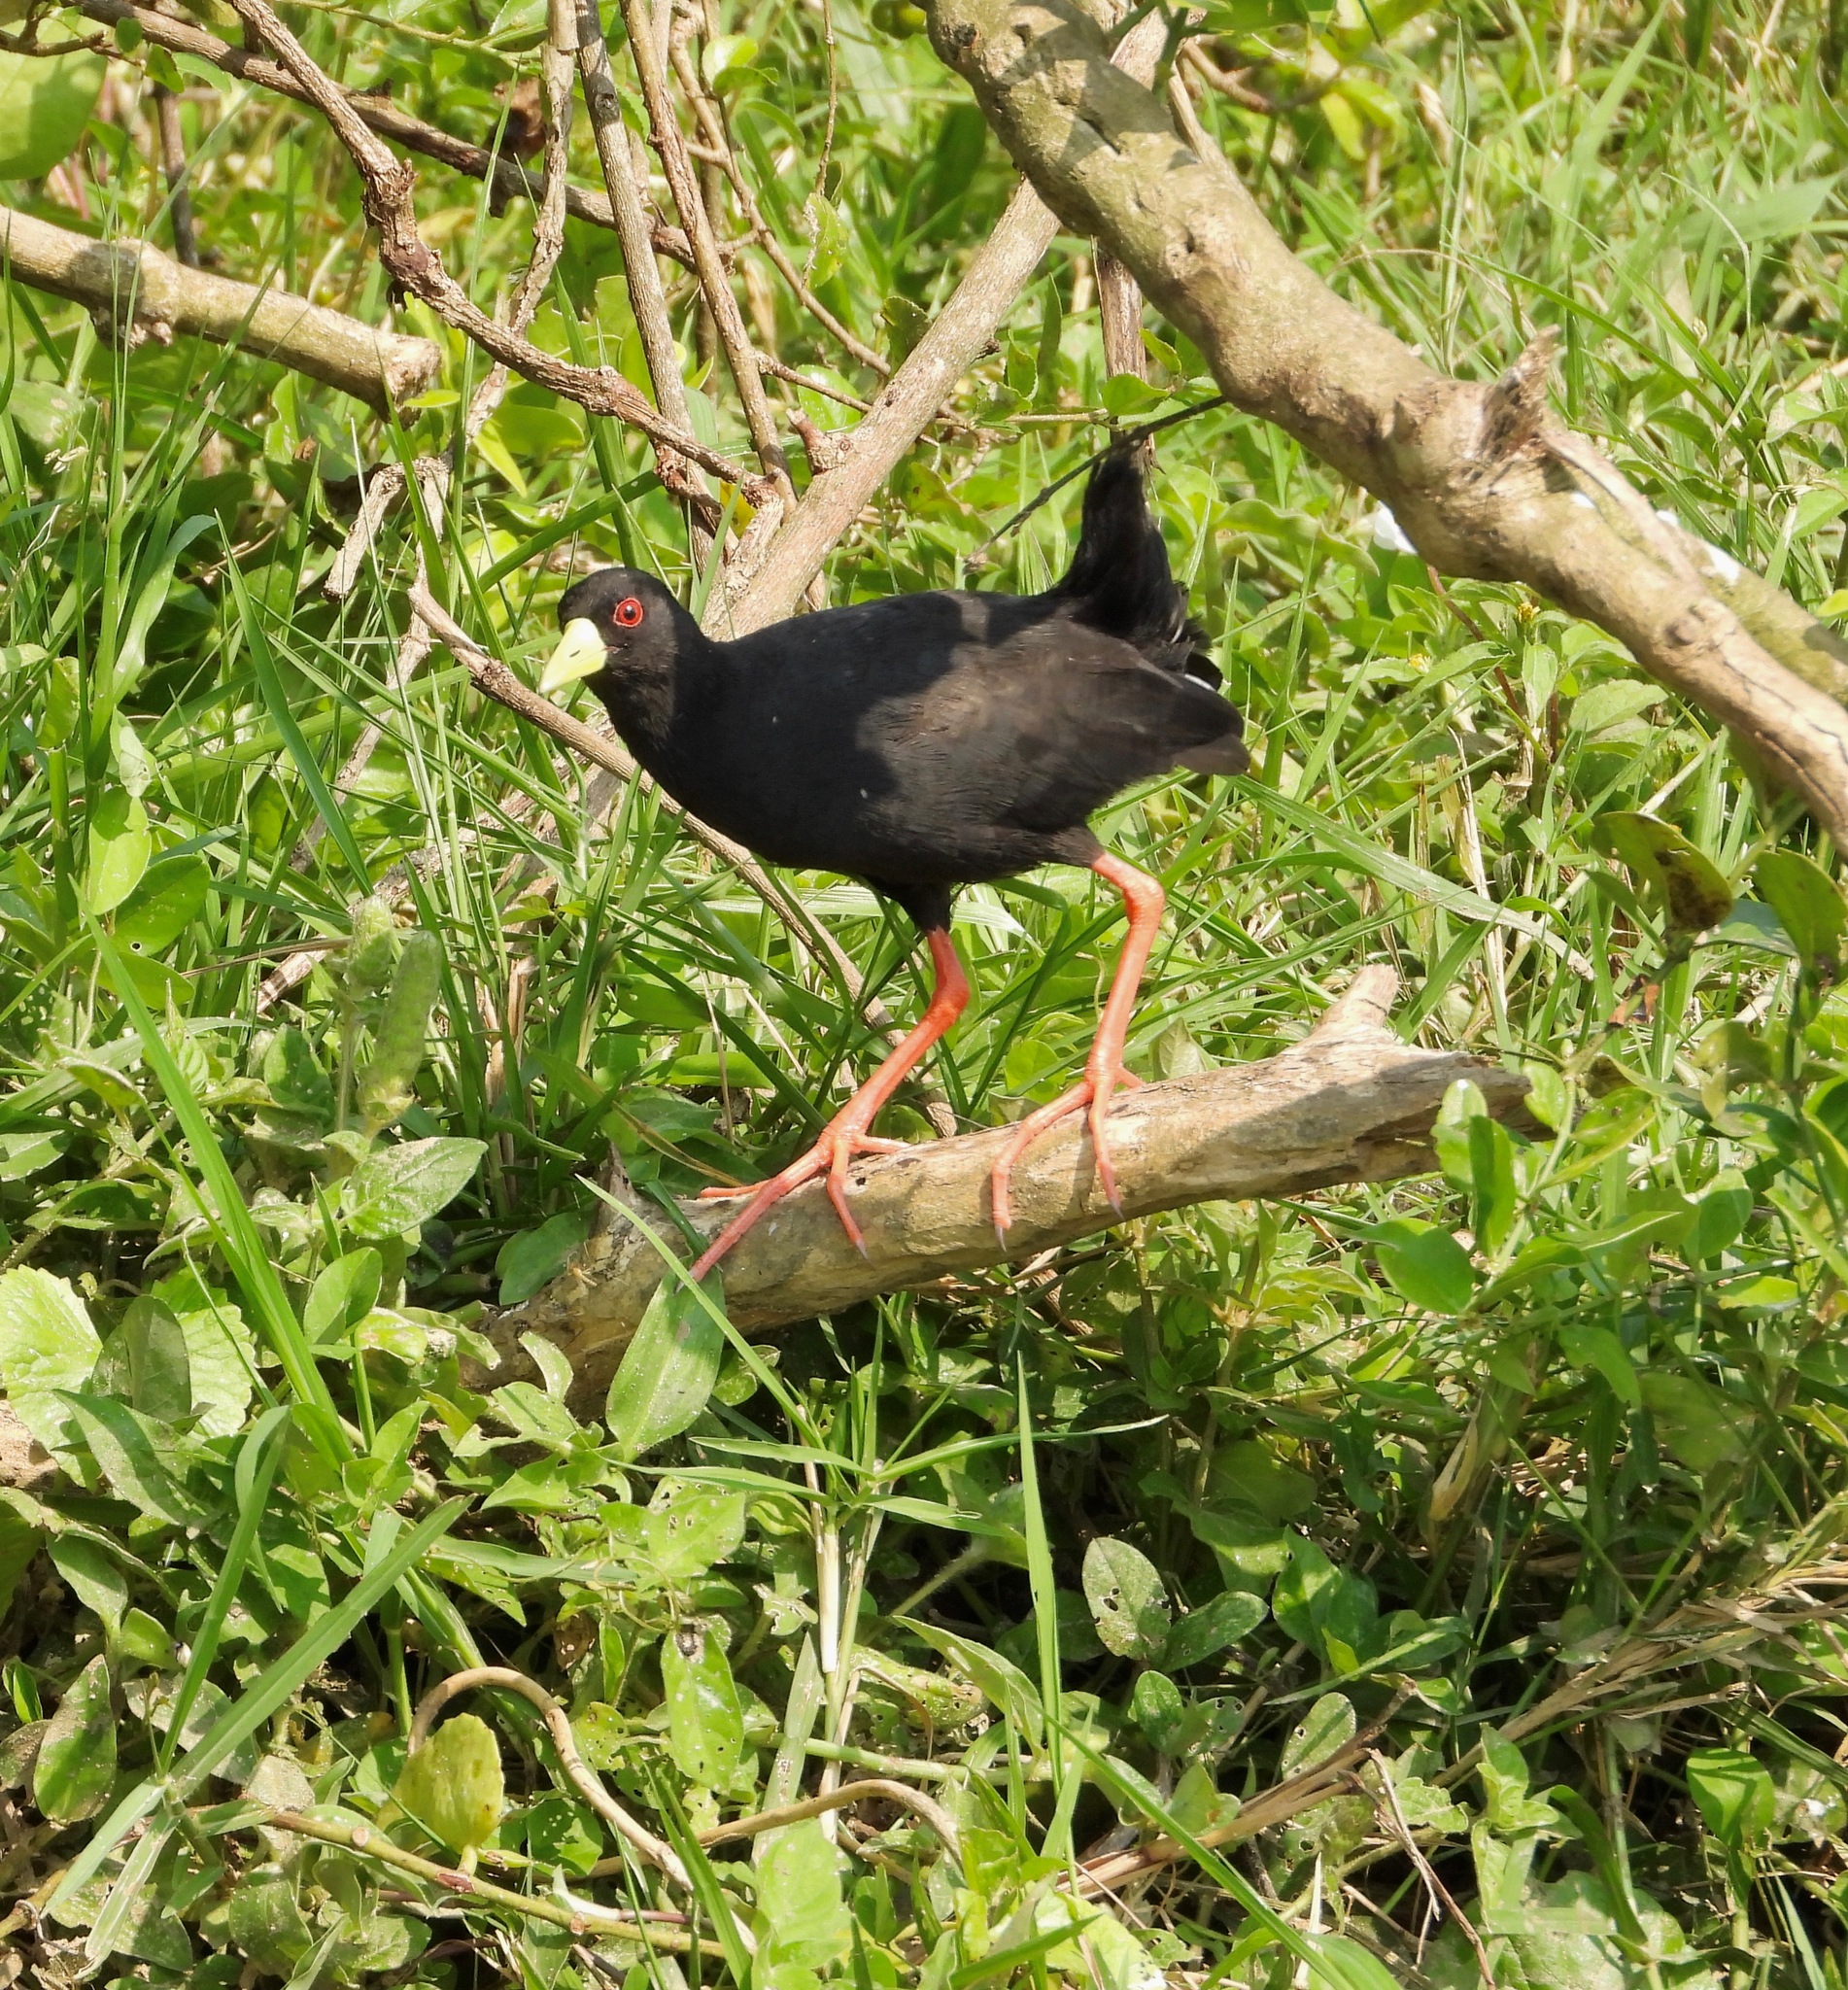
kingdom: Animalia
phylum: Chordata
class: Aves
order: Gruiformes
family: Rallidae
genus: Amaurornis
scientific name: Amaurornis flavirostra
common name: Black crake
